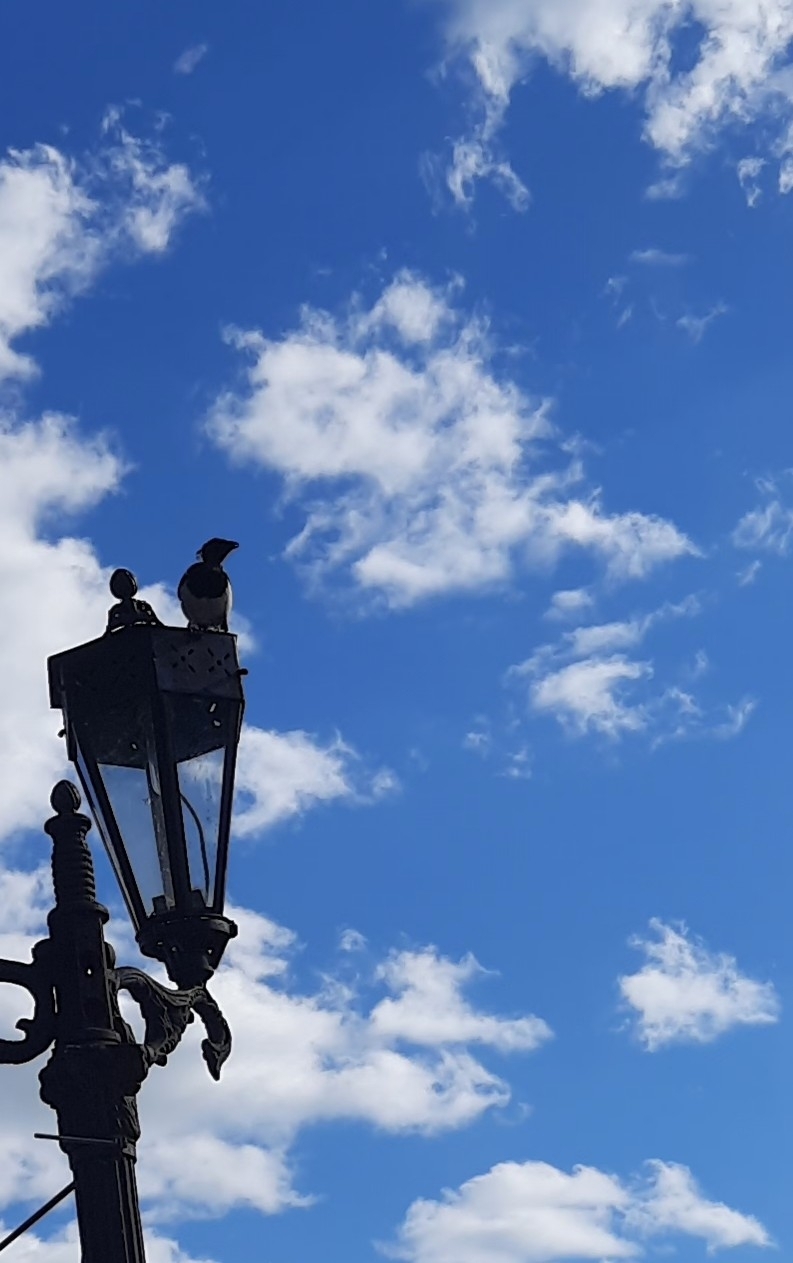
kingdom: Animalia
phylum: Chordata
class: Aves
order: Passeriformes
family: Corvidae
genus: Pica
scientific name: Pica pica
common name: Eurasian magpie
